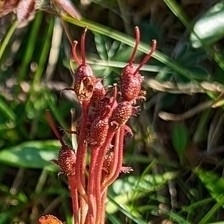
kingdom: Plantae
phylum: Tracheophyta
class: Magnoliopsida
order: Ericales
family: Ericaceae
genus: Rhododendron
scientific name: Rhododendron hirsutum
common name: Hairy alpenrose
